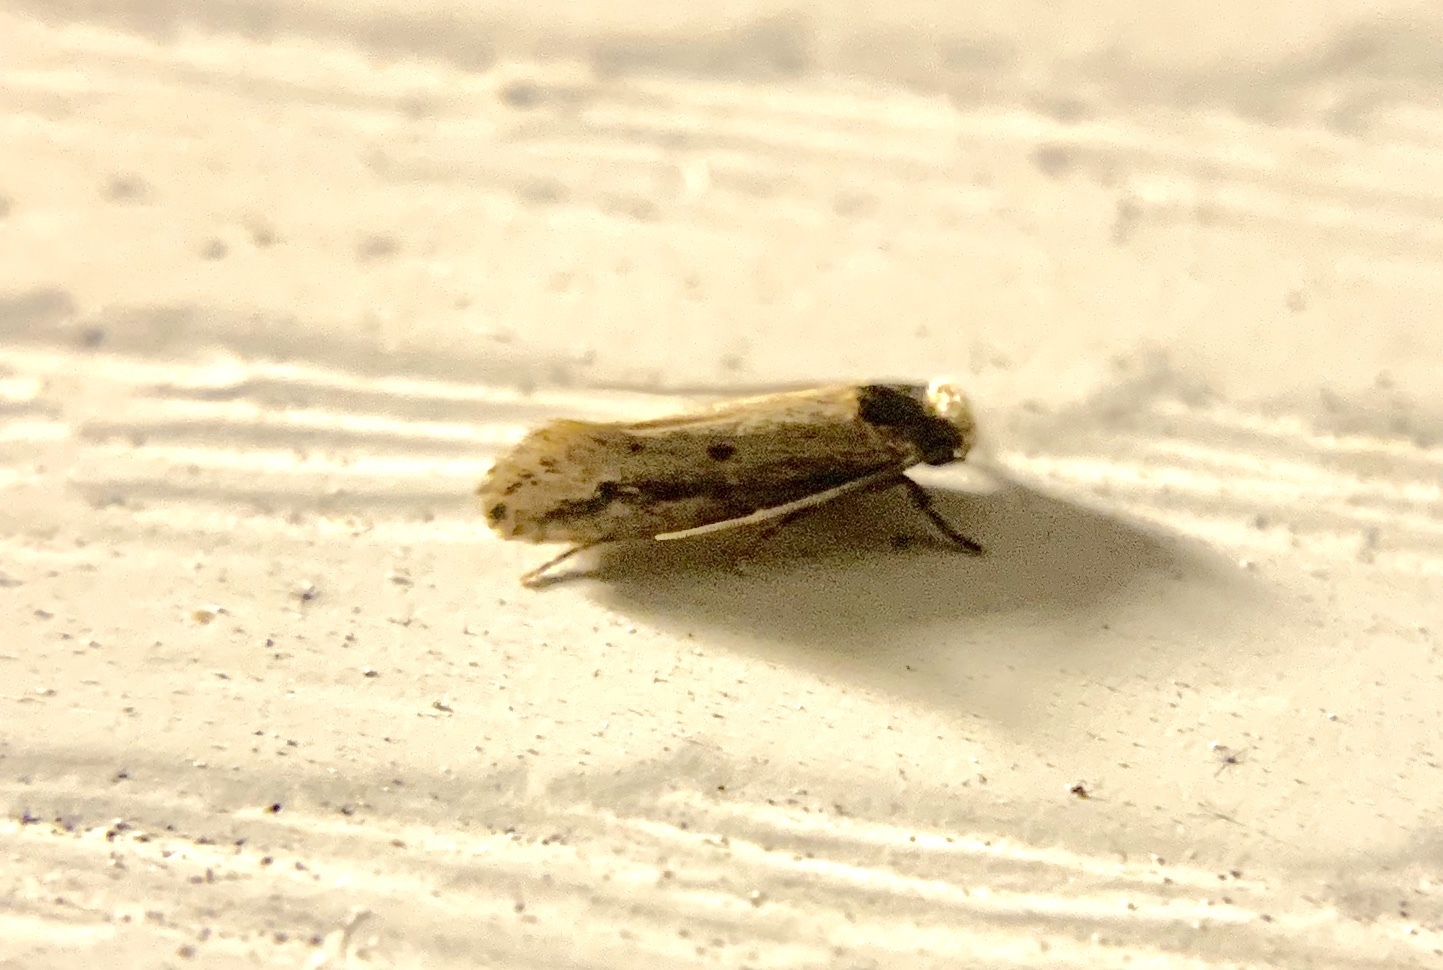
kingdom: Animalia
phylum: Arthropoda
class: Insecta
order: Lepidoptera
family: Tineidae
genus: Tinea
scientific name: Tinea apicimaculella
